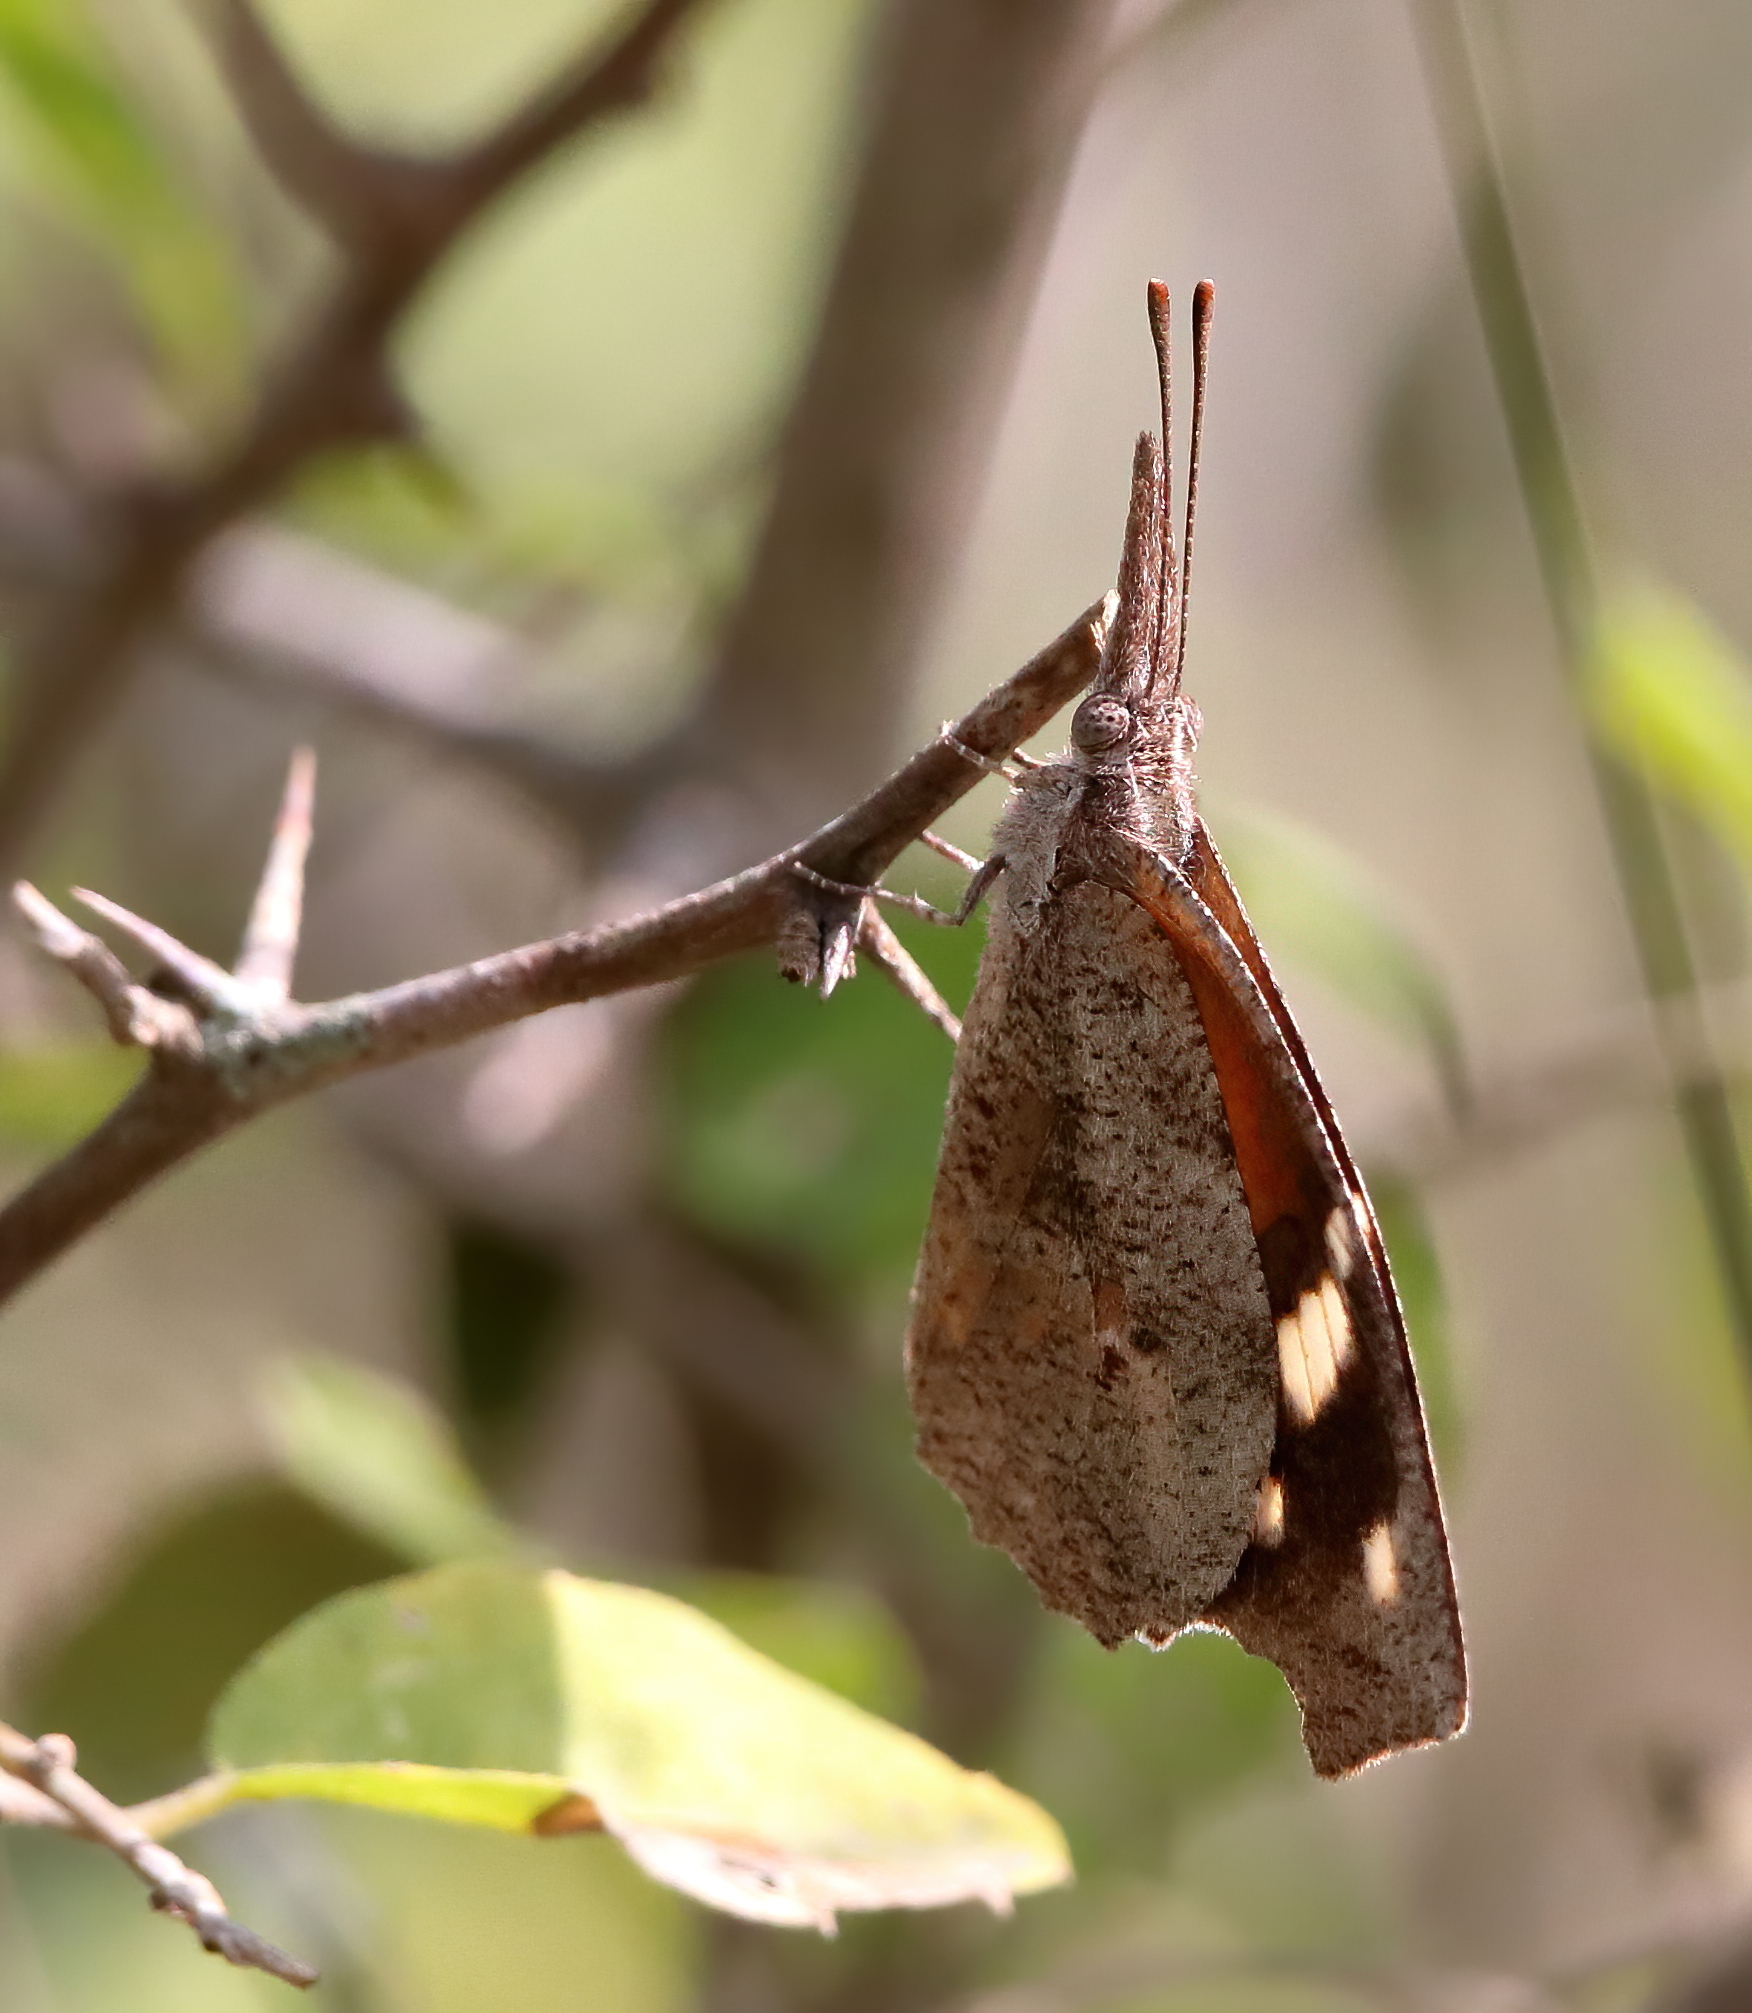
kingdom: Animalia
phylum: Arthropoda
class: Insecta
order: Lepidoptera
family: Nymphalidae
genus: Libytheana
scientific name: Libytheana carinenta
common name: American snout
